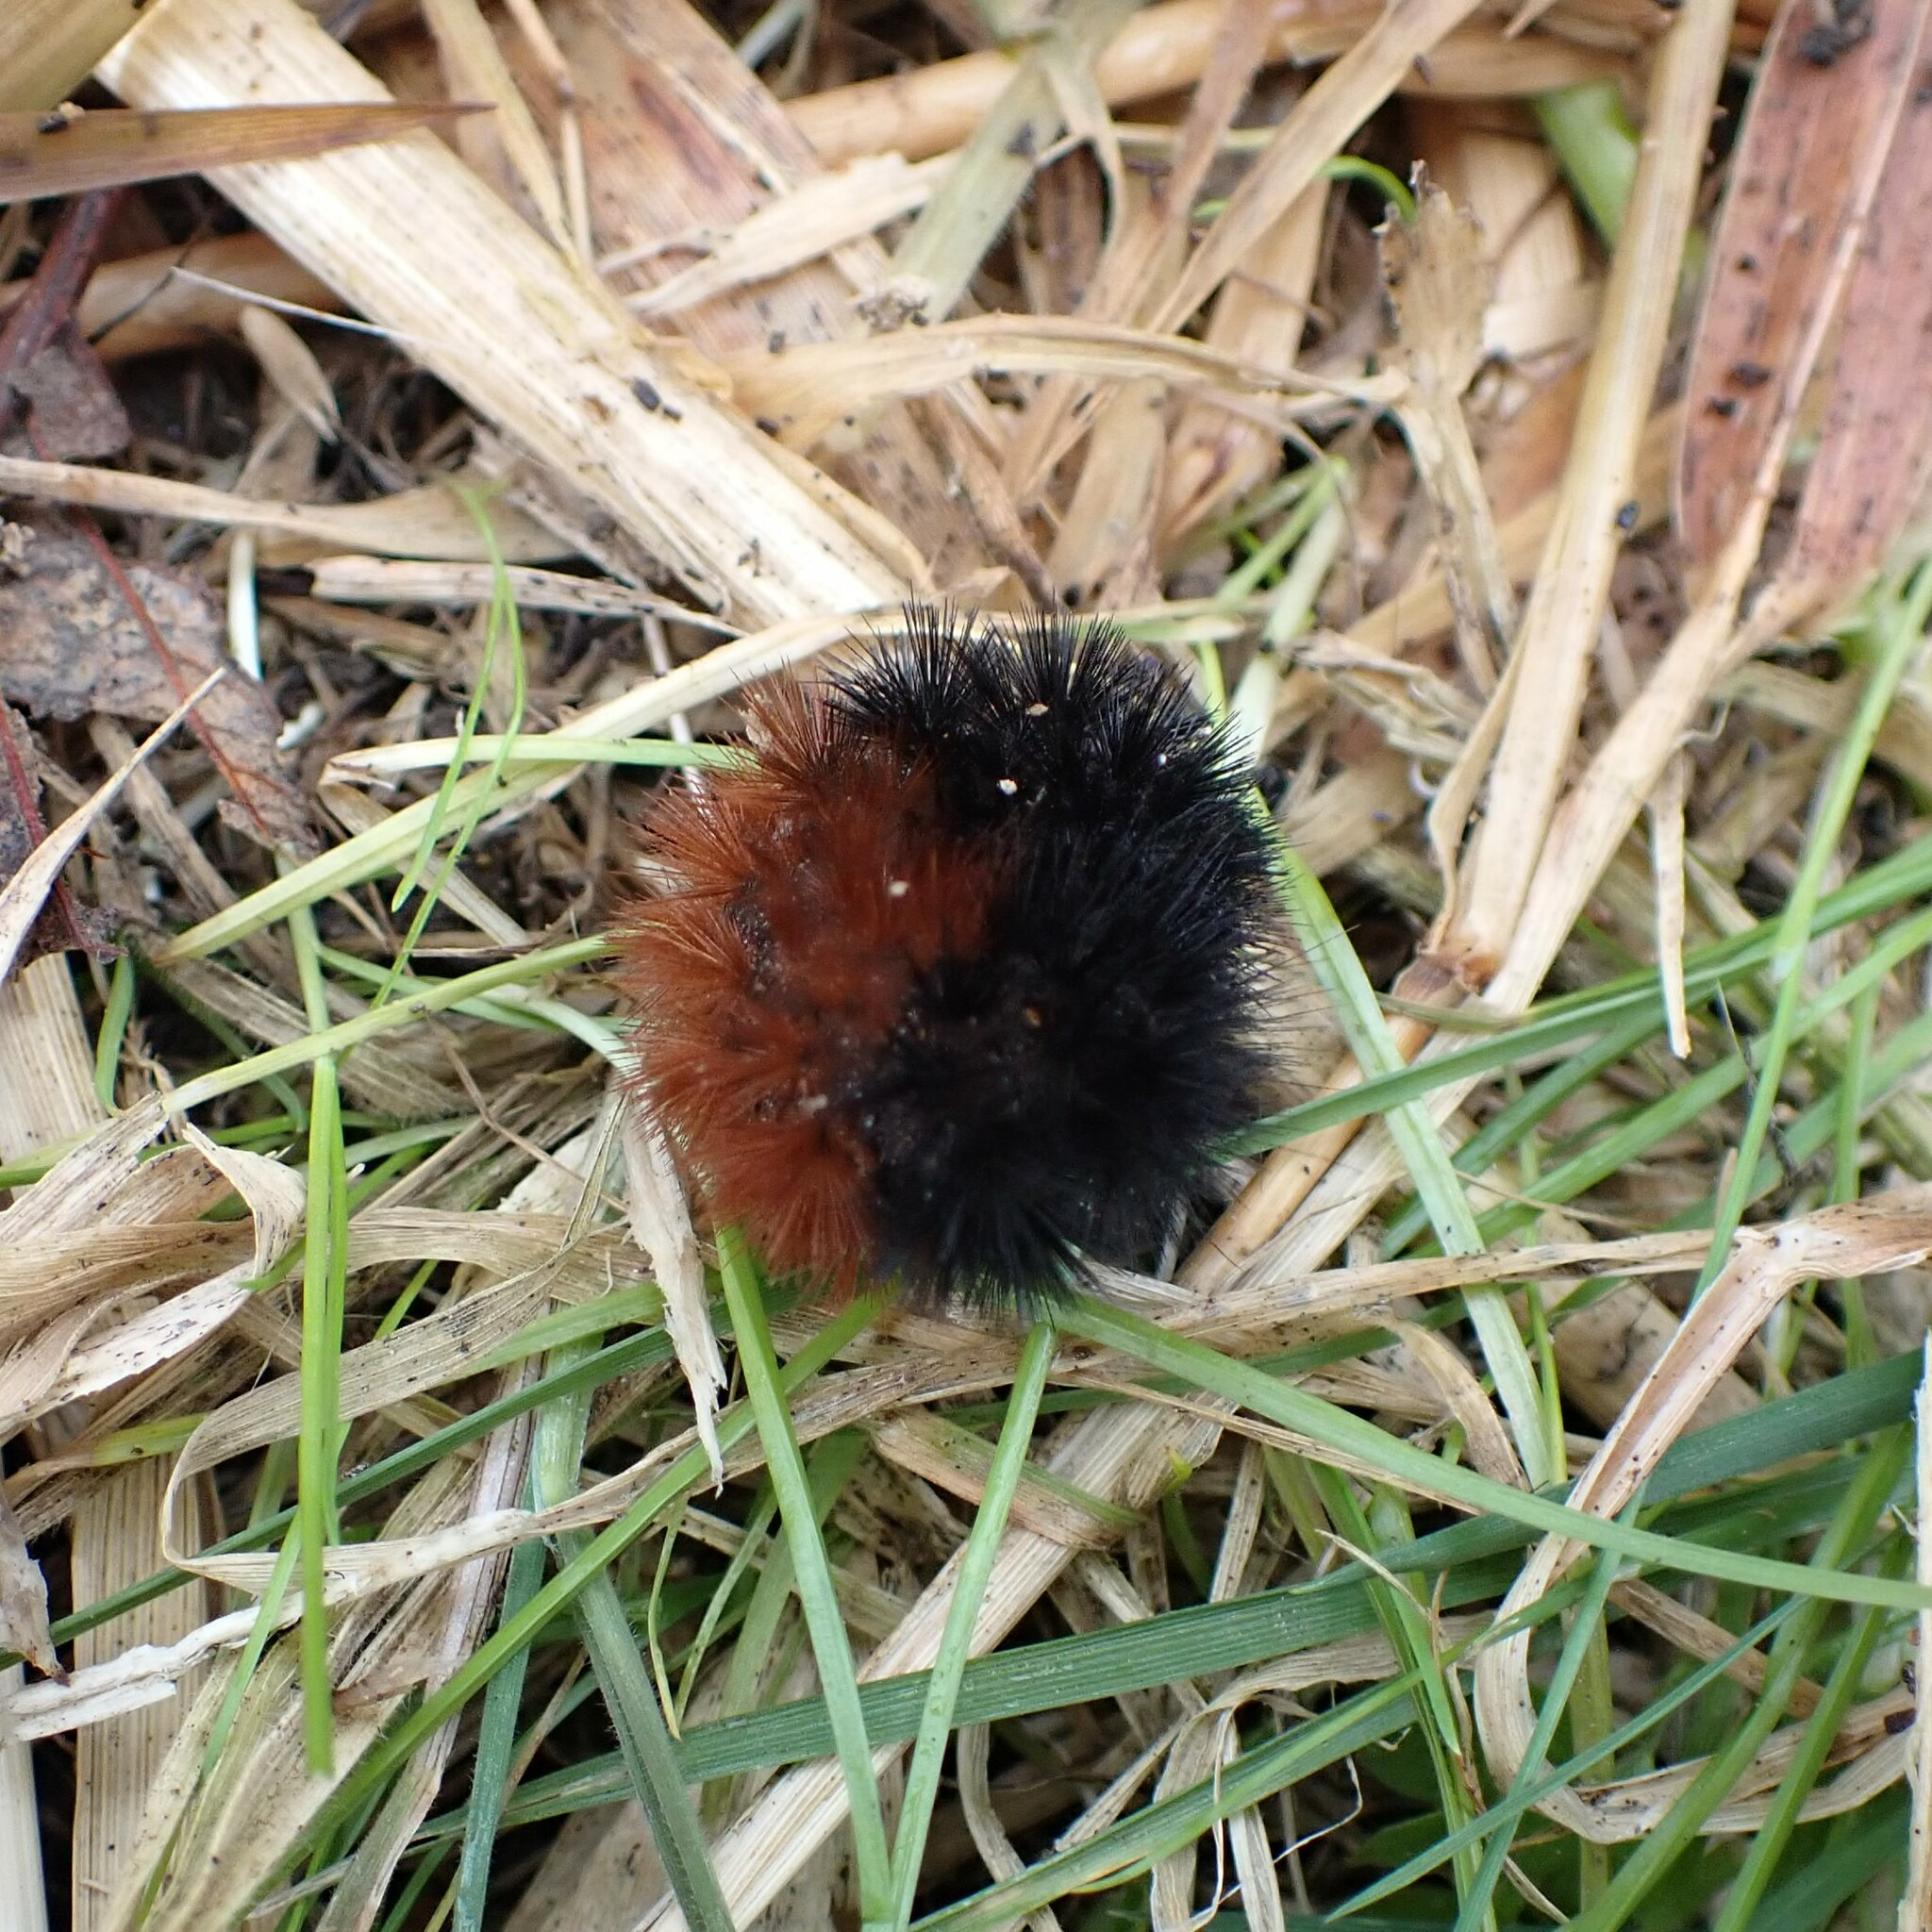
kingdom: Animalia
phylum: Arthropoda
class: Insecta
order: Lepidoptera
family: Erebidae
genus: Pyrrharctia
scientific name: Pyrrharctia isabella
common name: Isabella tiger moth
